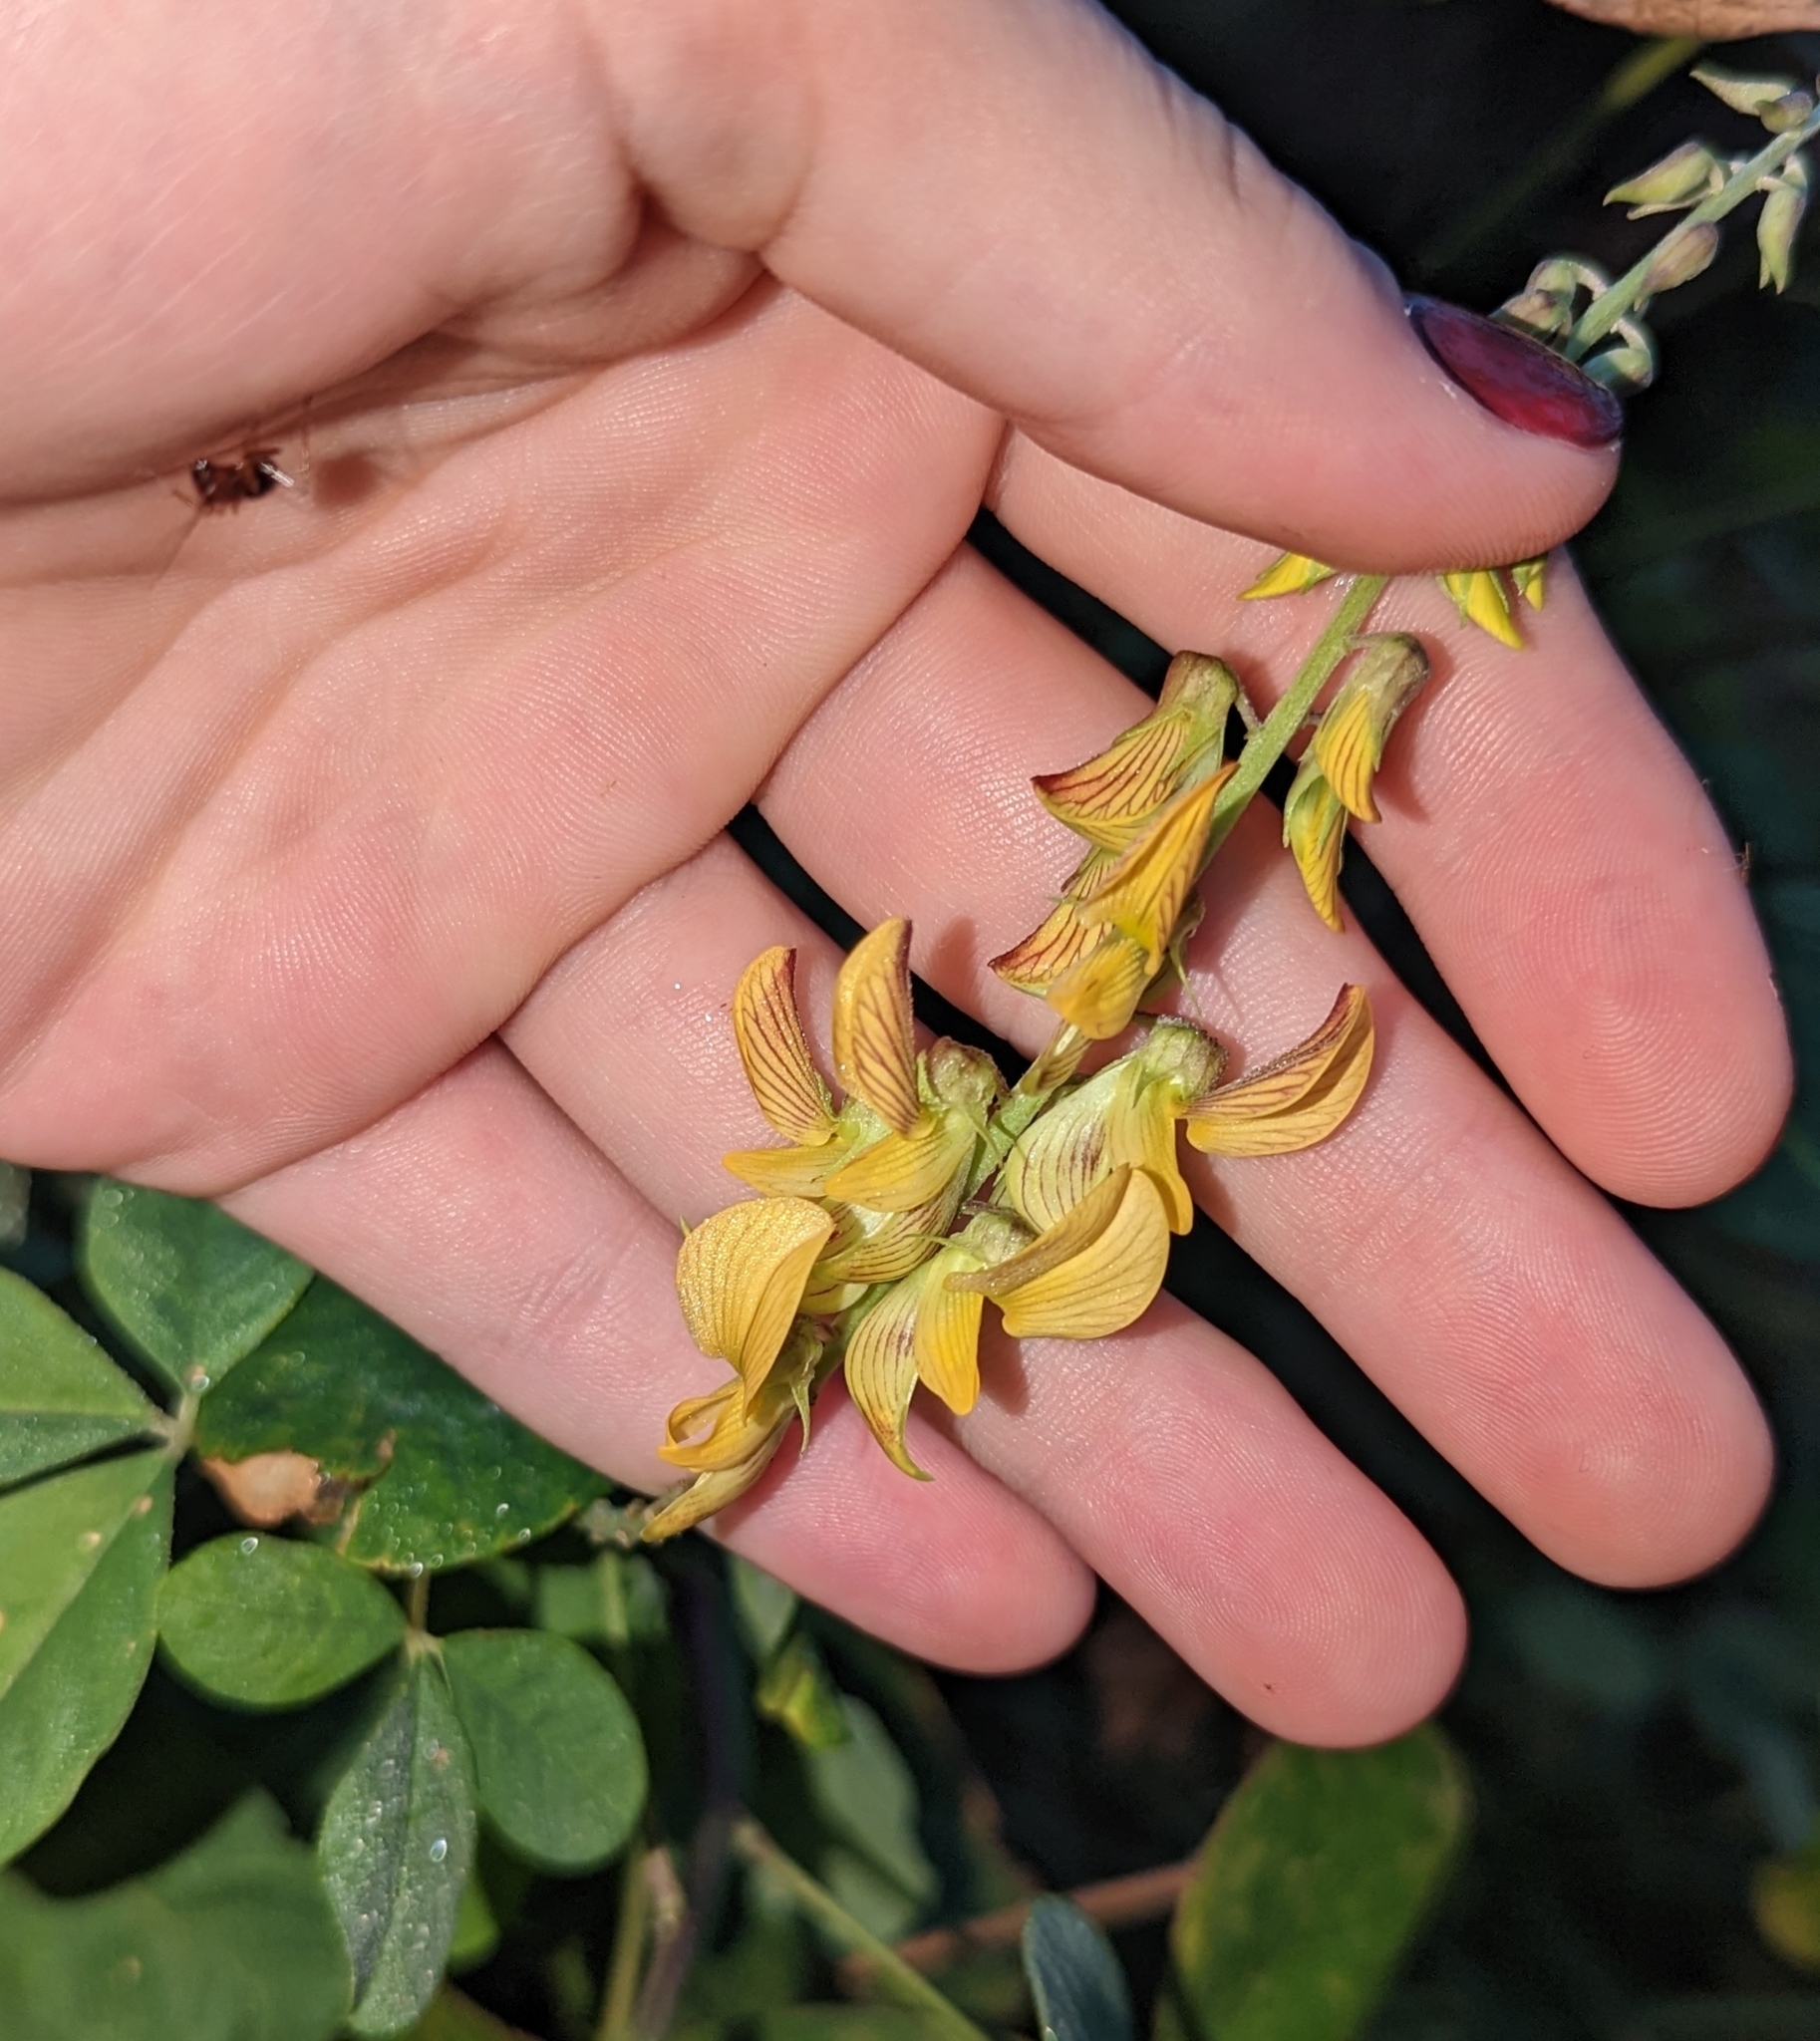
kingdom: Plantae
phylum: Tracheophyta
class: Magnoliopsida
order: Fabales
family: Fabaceae
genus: Crotalaria
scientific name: Crotalaria pallida
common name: Smooth rattlebox
